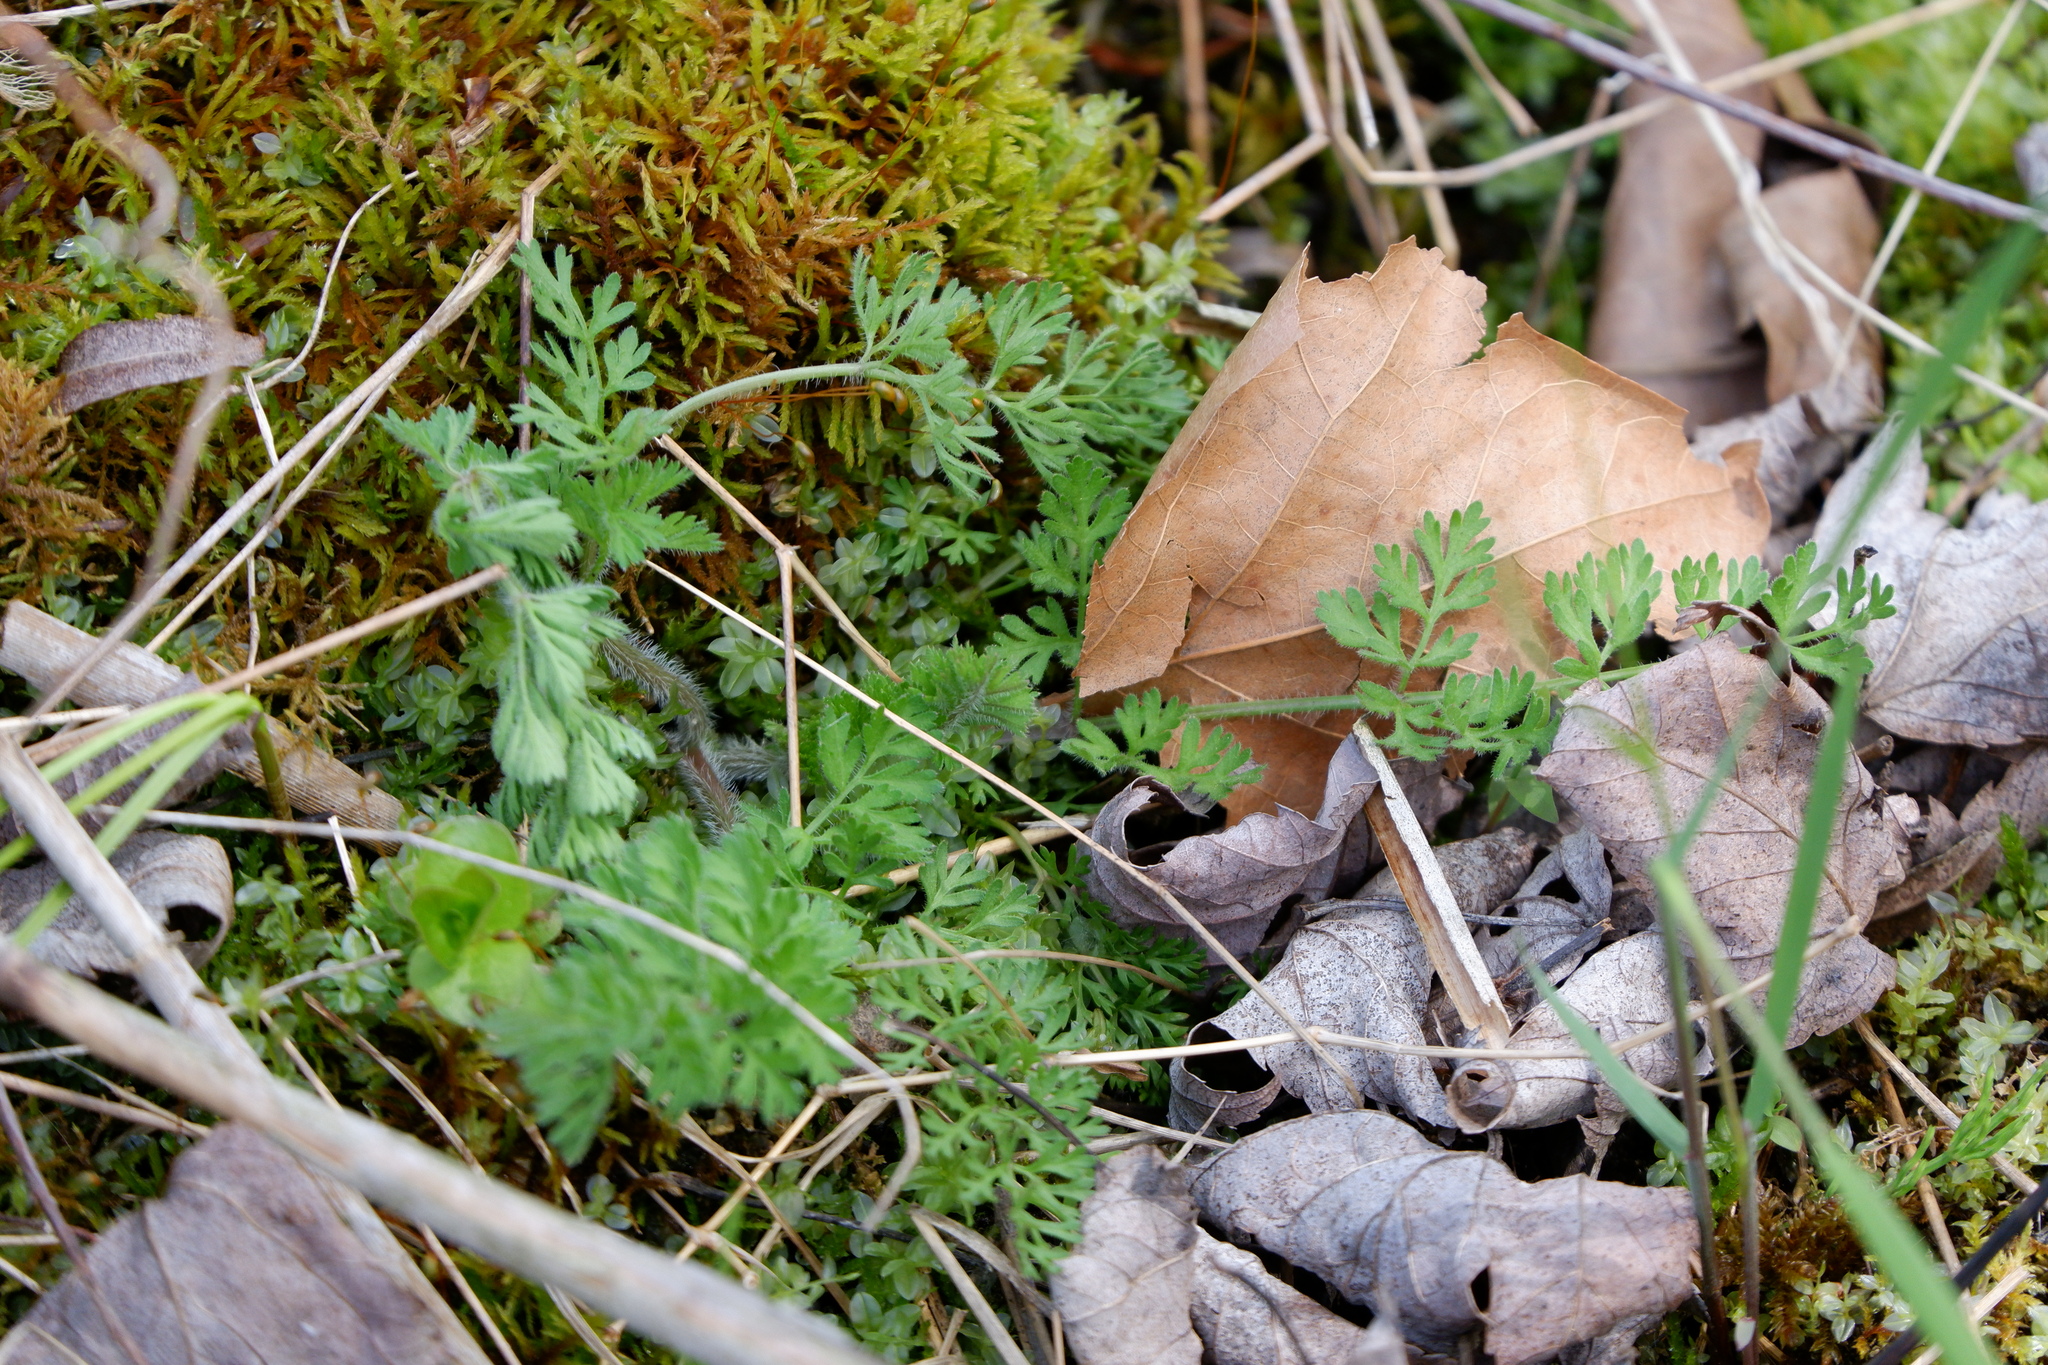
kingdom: Plantae
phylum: Tracheophyta
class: Magnoliopsida
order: Apiales
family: Apiaceae
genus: Daucus
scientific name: Daucus carota
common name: Wild carrot
